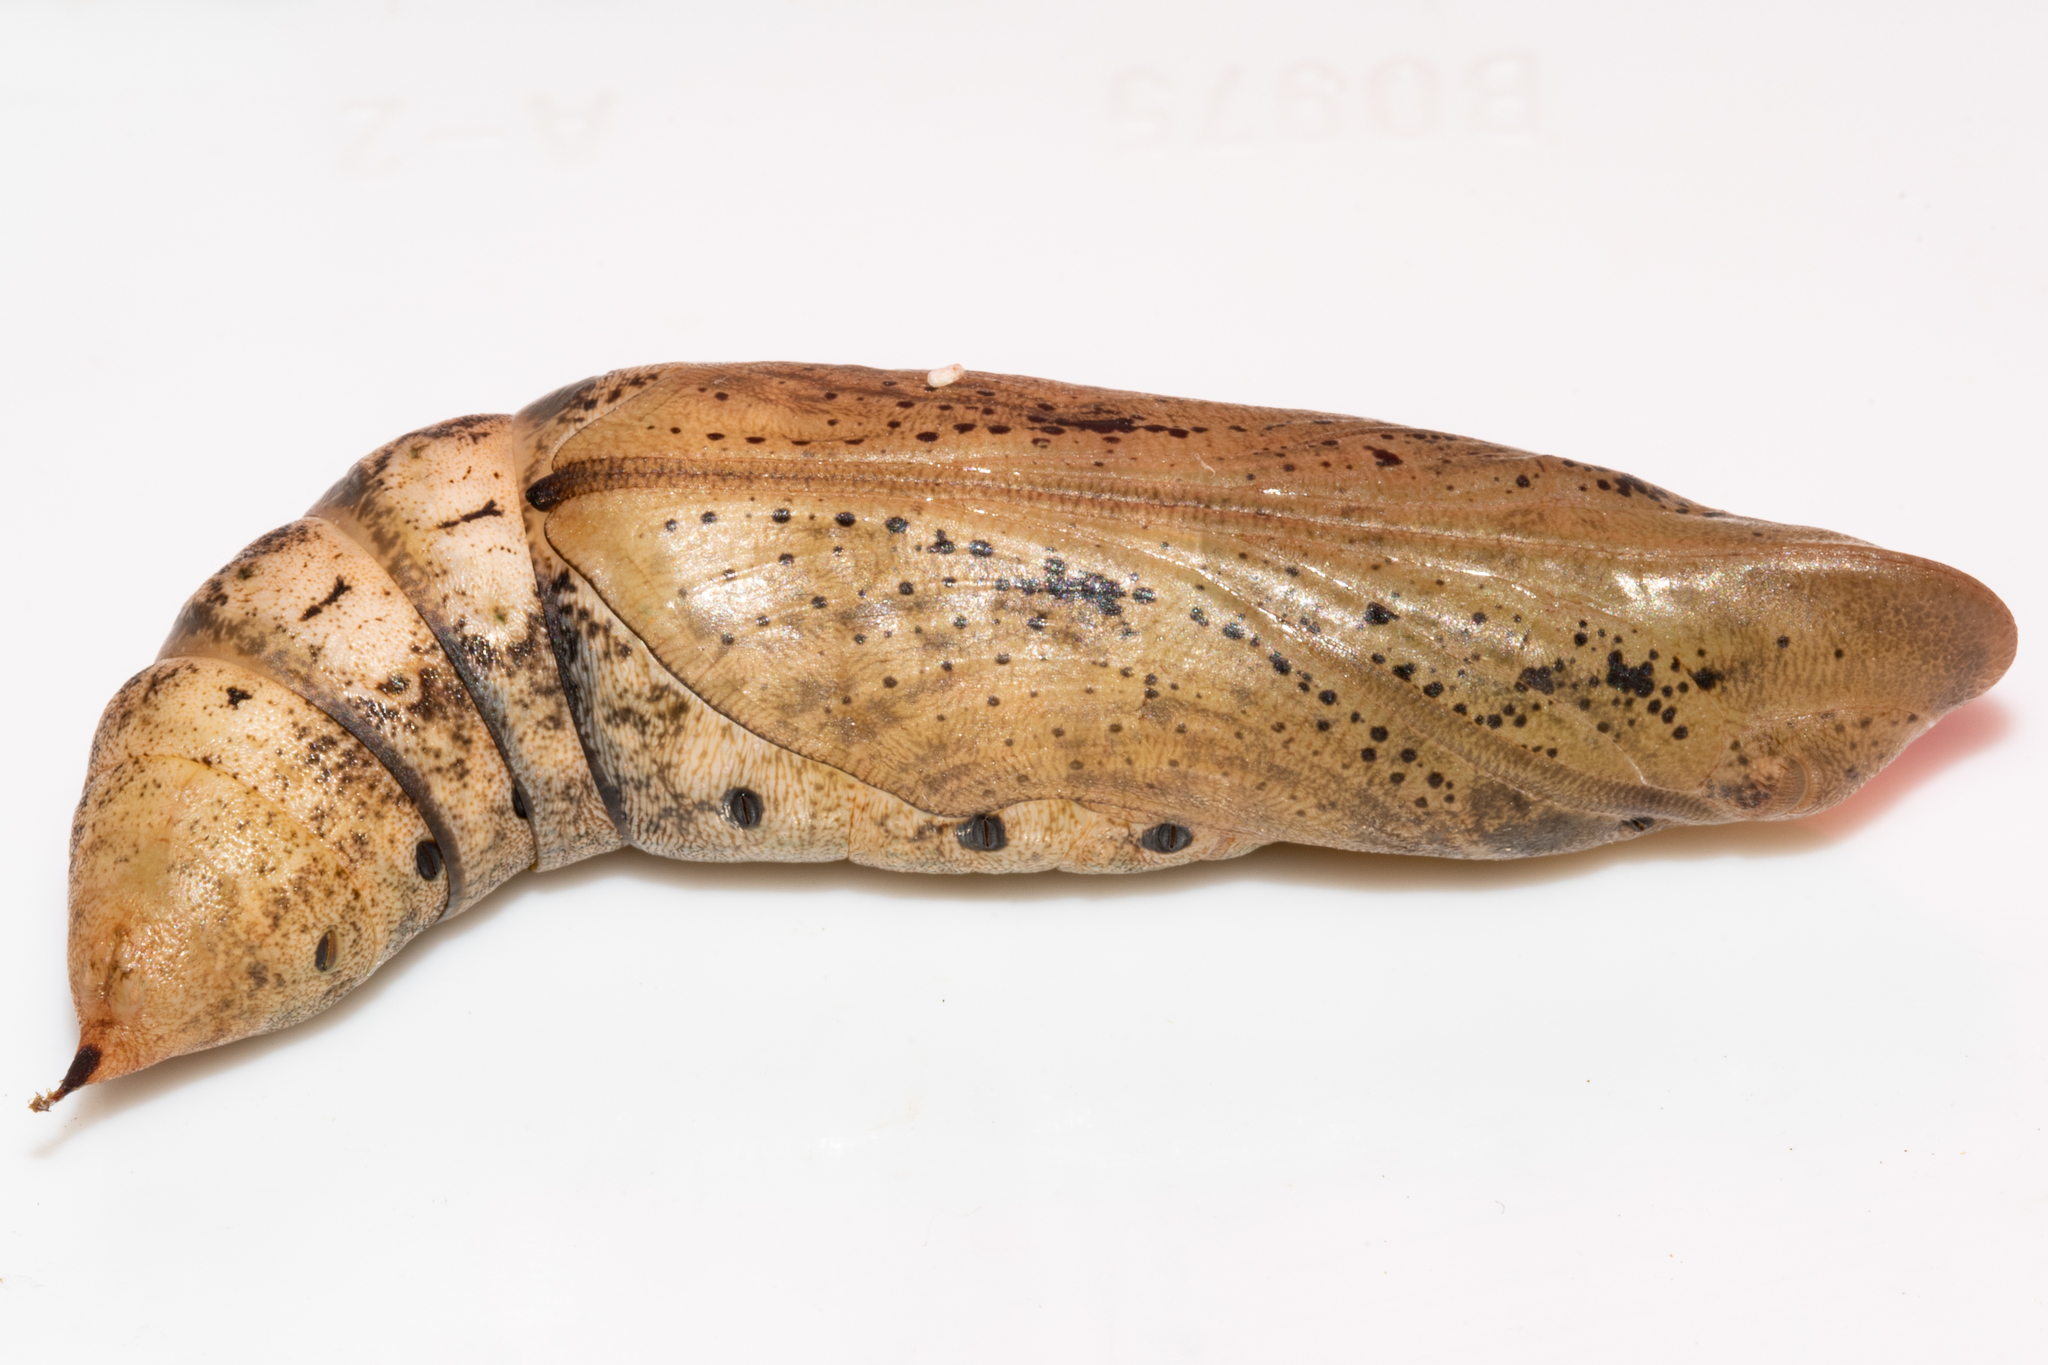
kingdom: Animalia
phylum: Arthropoda
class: Insecta
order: Lepidoptera
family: Sphingidae
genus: Hippotion
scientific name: Hippotion celerio
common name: Silver-striped hawk-moth
